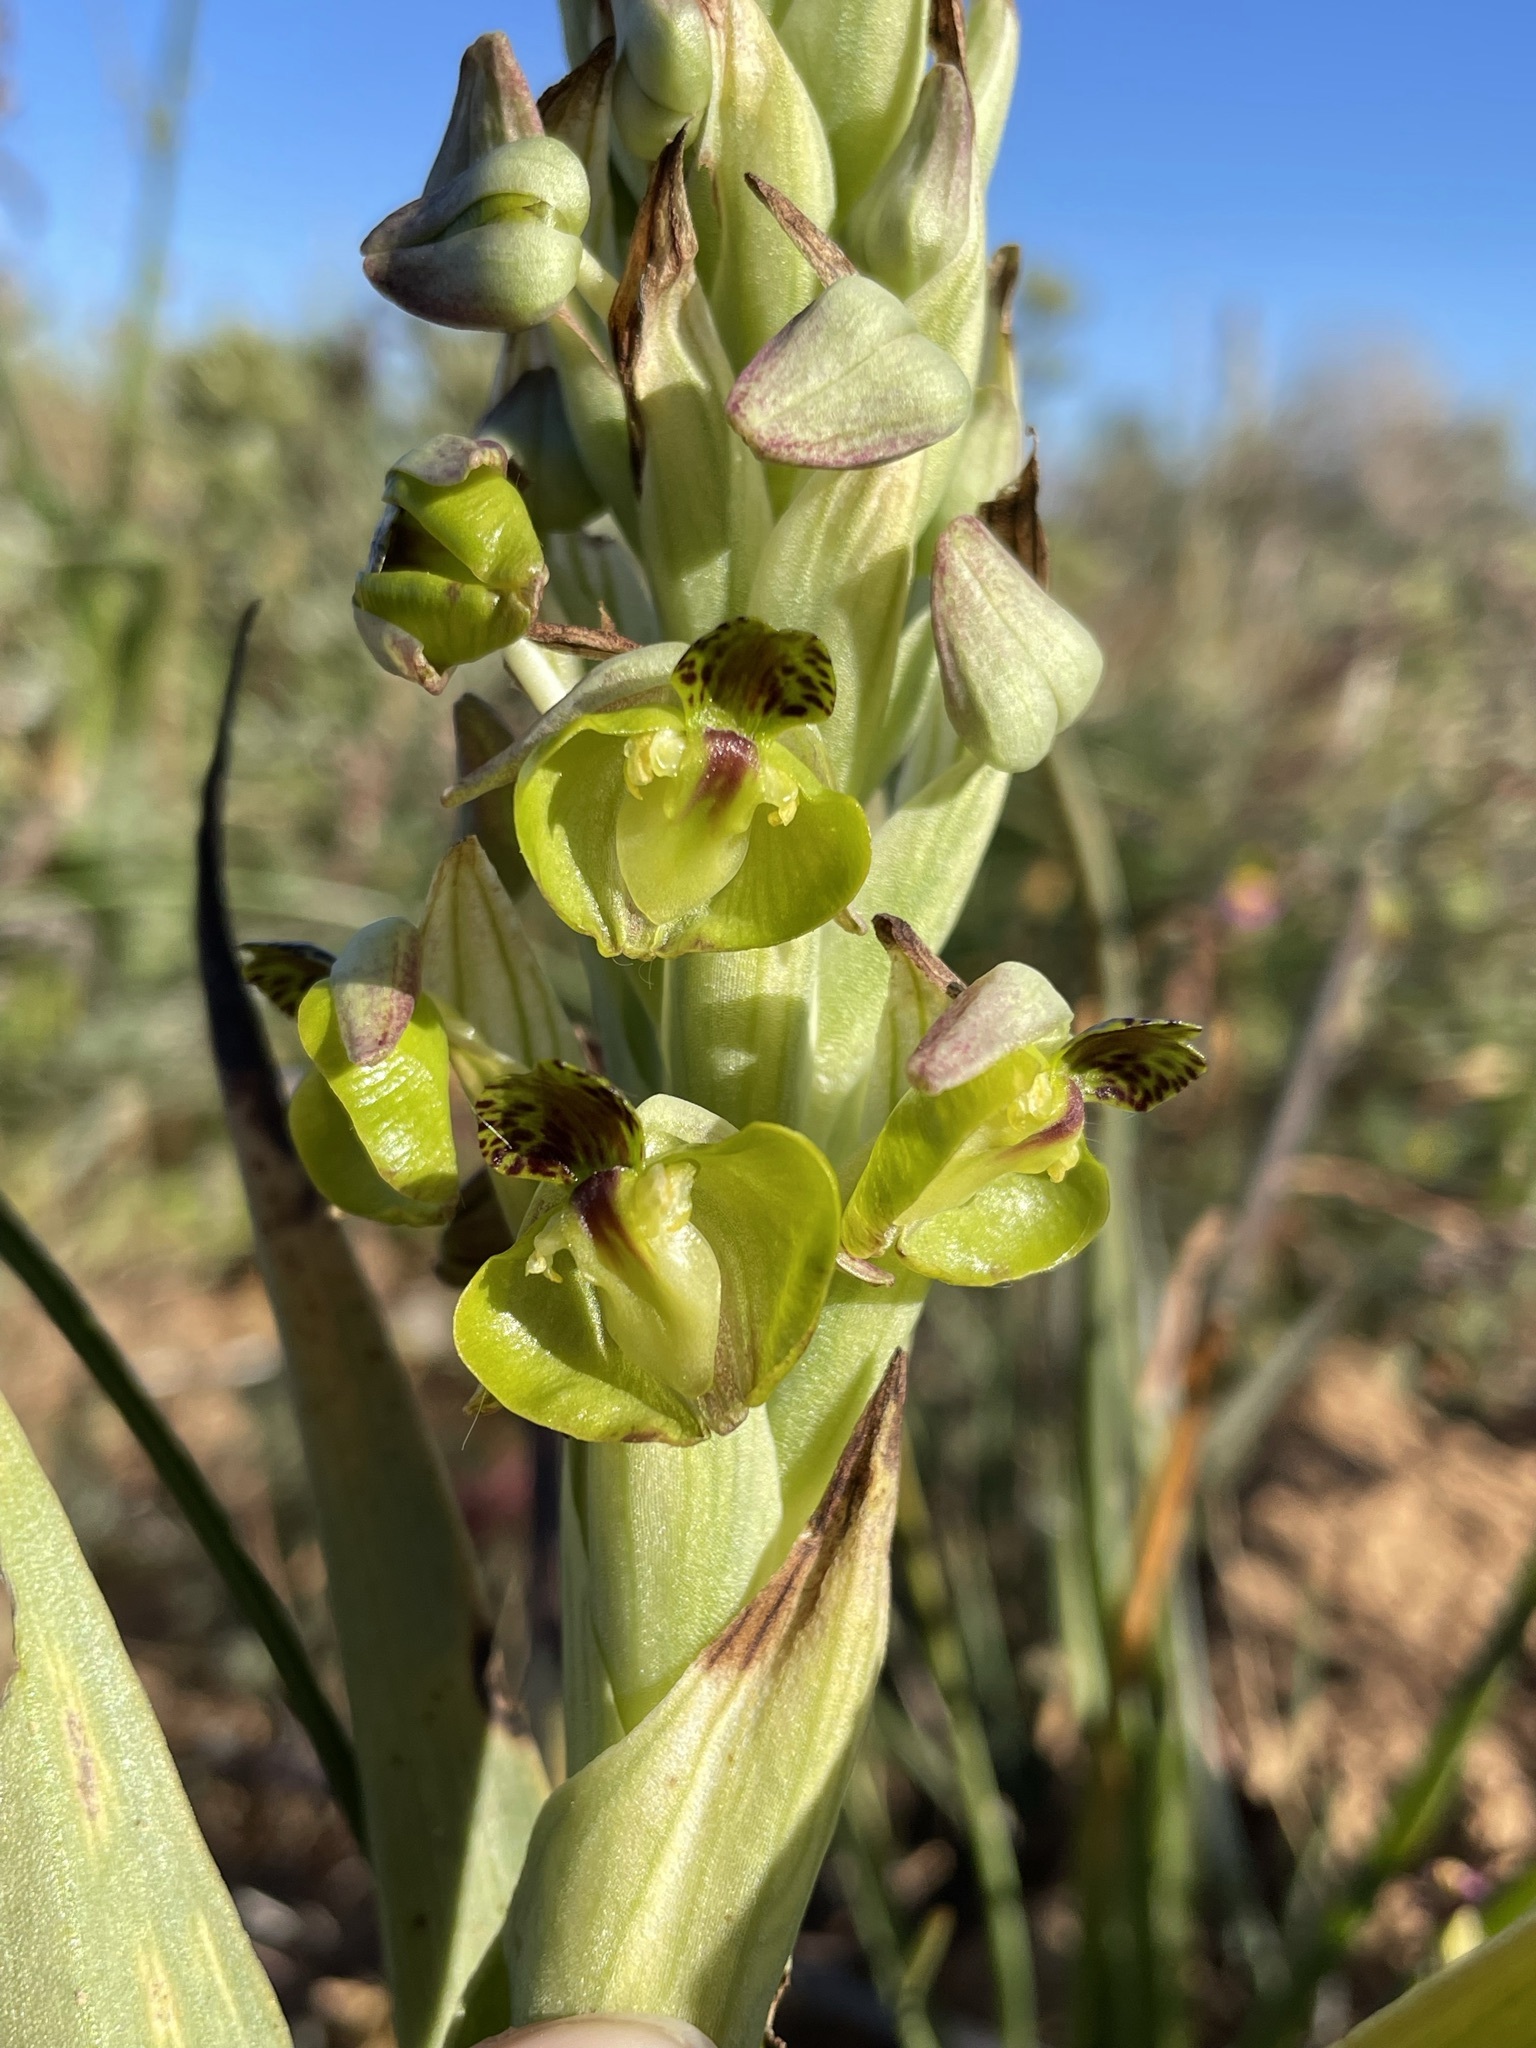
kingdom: Plantae
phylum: Tracheophyta
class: Liliopsida
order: Asparagales
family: Orchidaceae
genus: Pterygodium
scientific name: Pterygodium hallii
